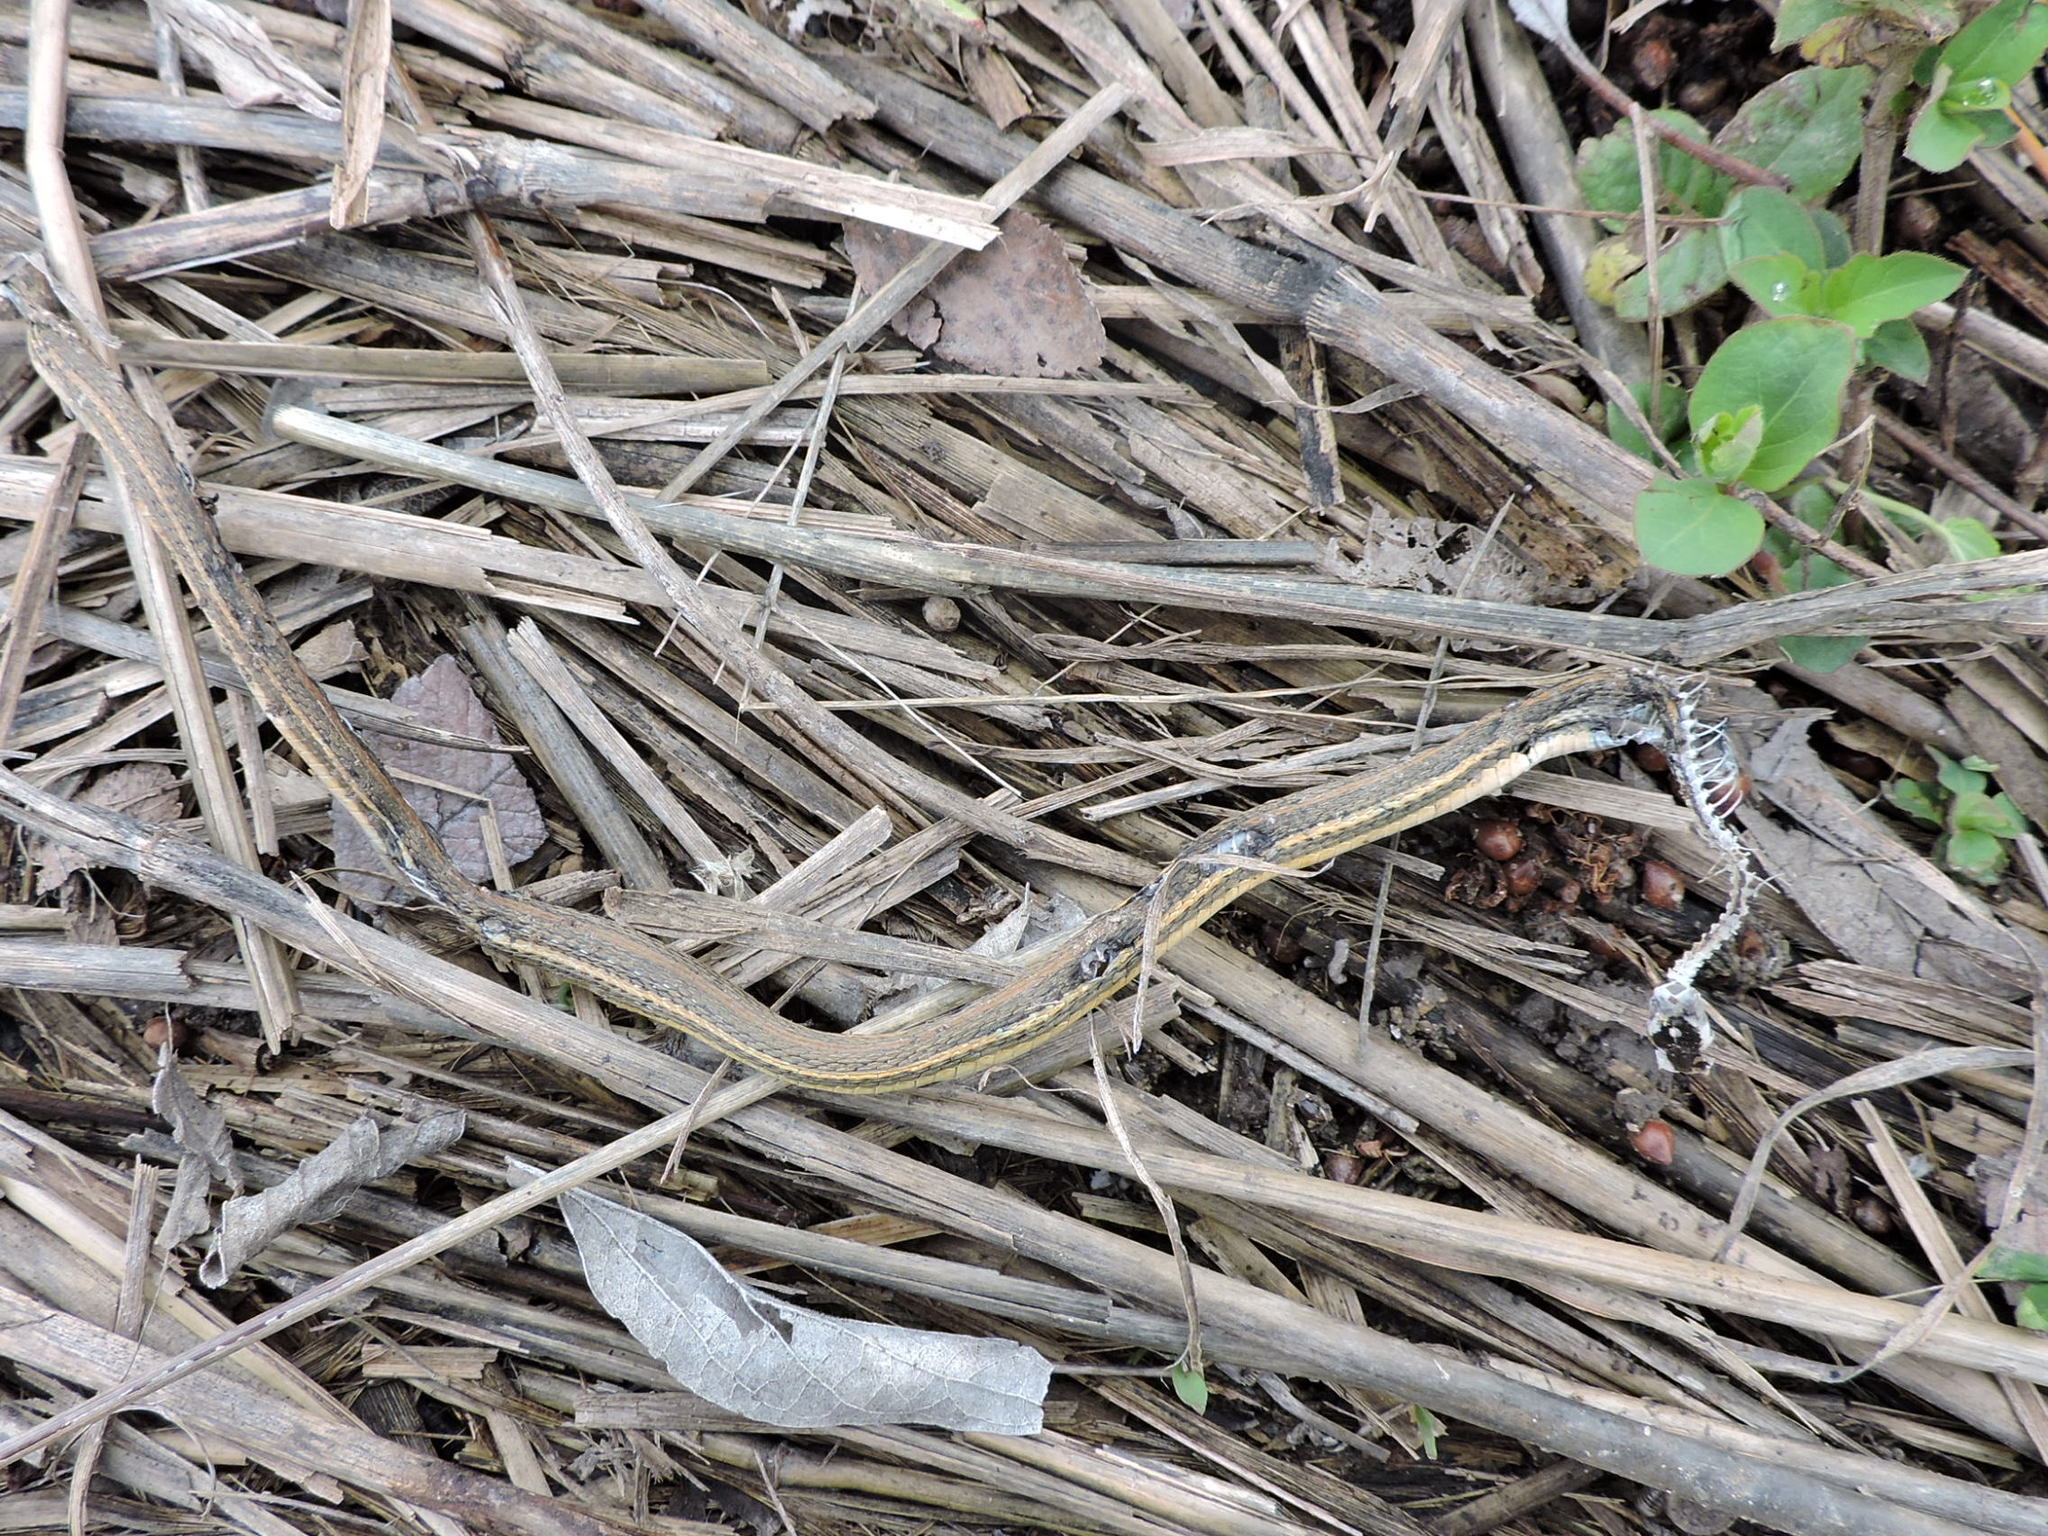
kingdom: Animalia
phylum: Chordata
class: Squamata
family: Colubridae
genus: Thamnophis
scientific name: Thamnophis proximus
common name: Western ribbon snake
